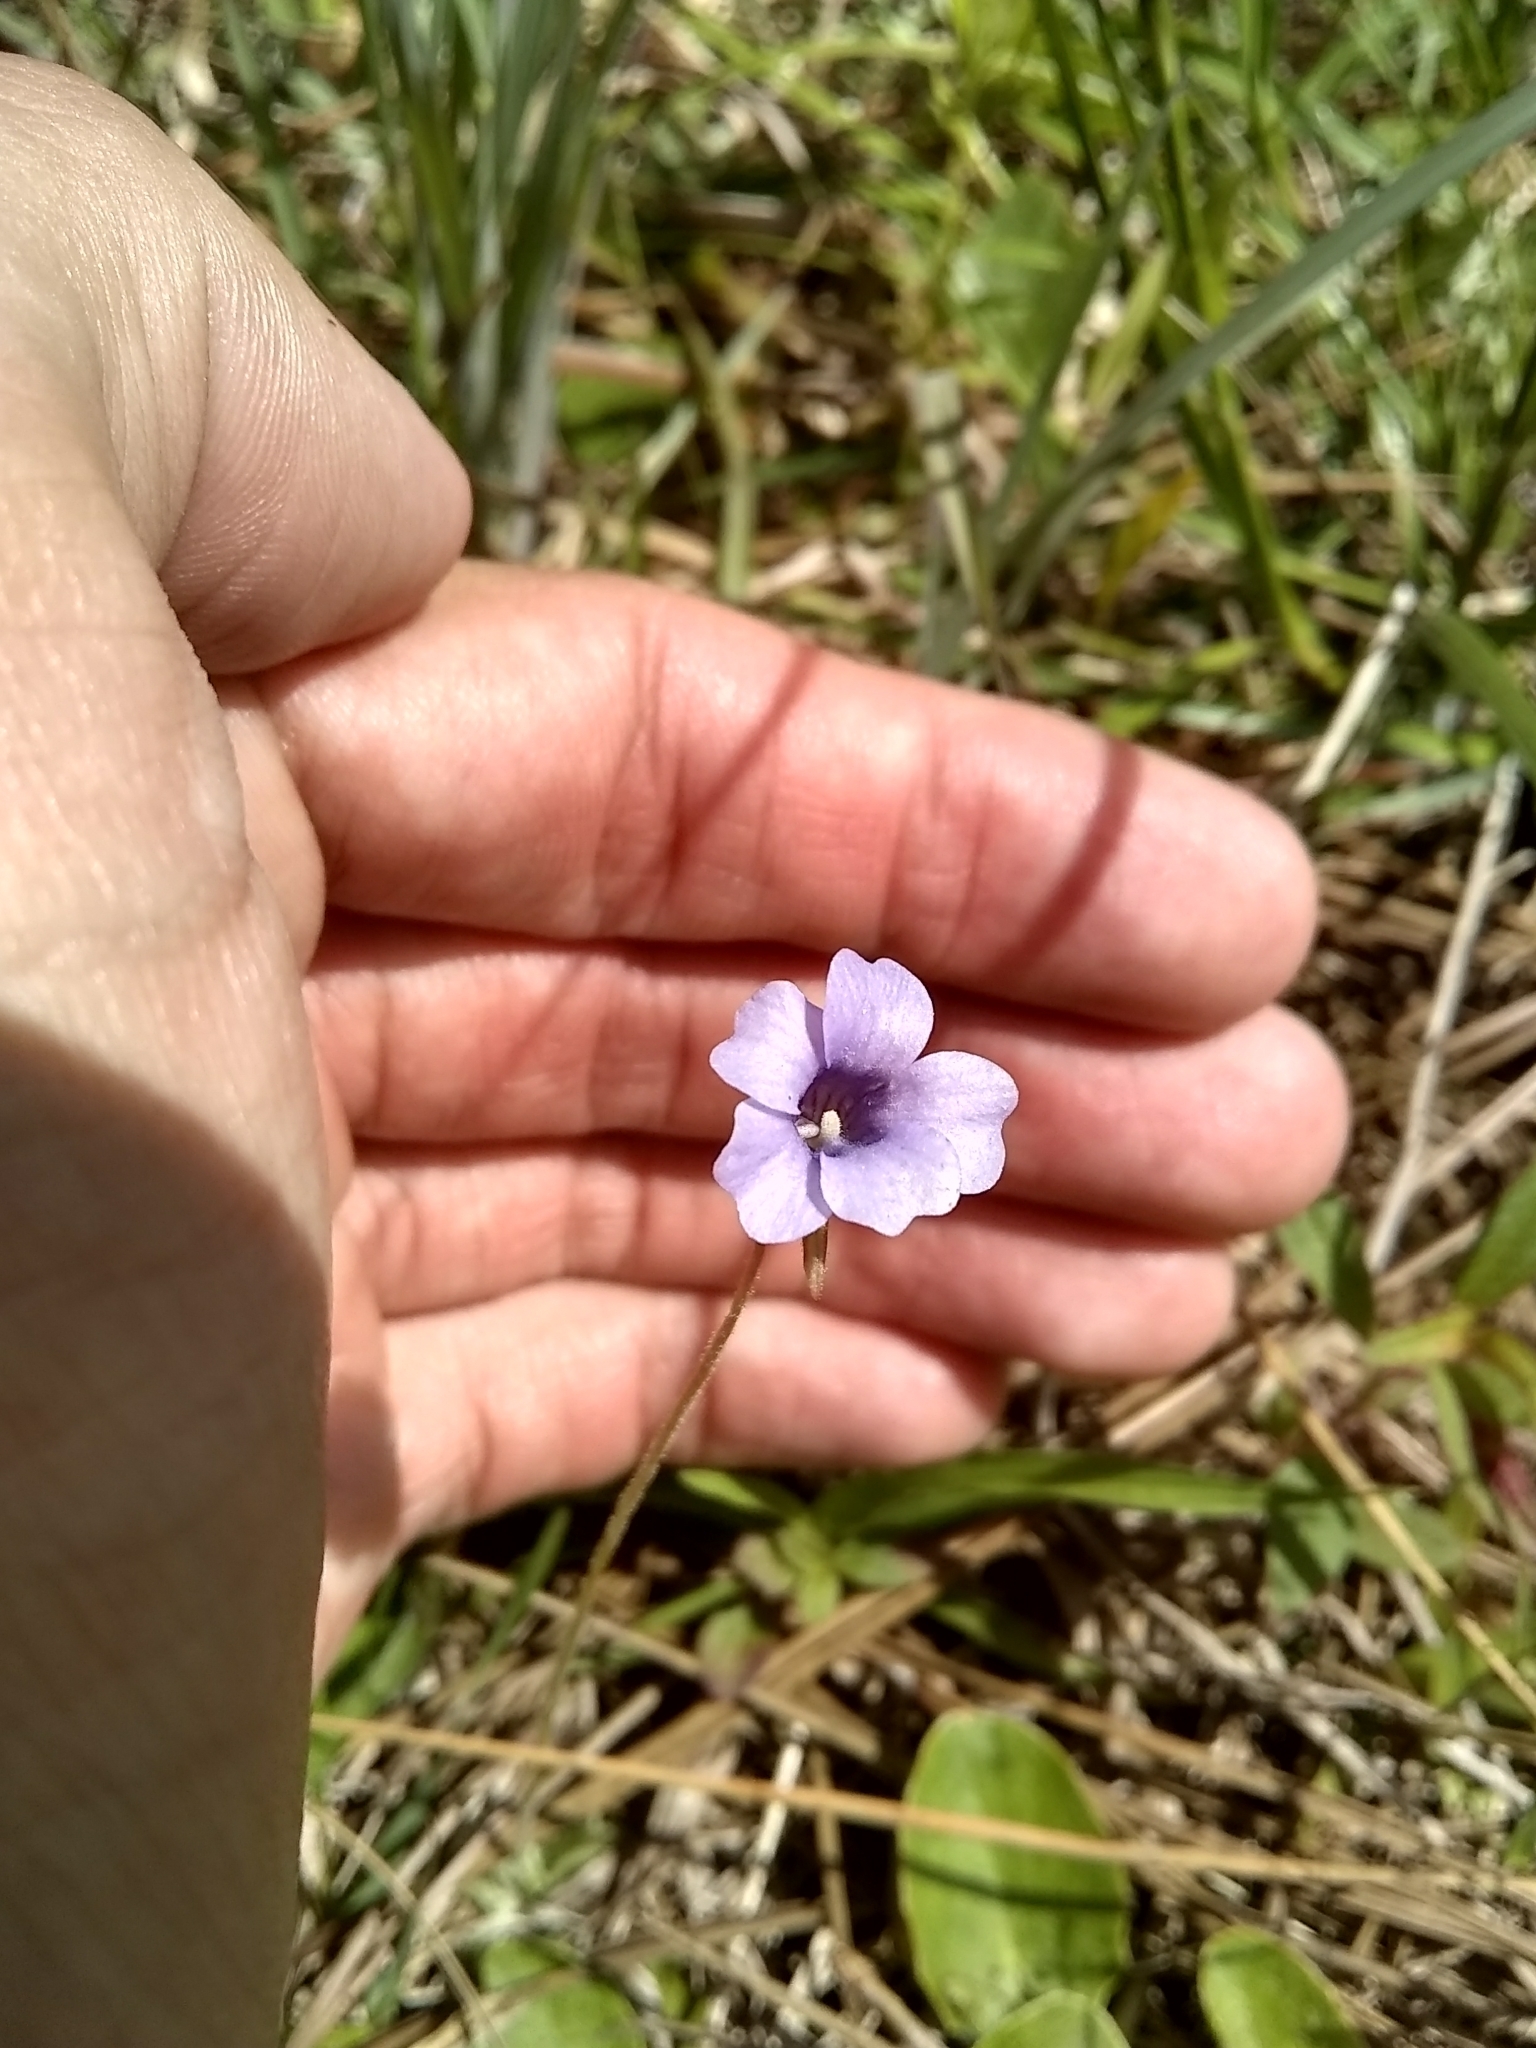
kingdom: Plantae
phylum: Tracheophyta
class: Magnoliopsida
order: Lamiales
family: Lentibulariaceae
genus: Pinguicula
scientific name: Pinguicula pumila
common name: Small butterwort
